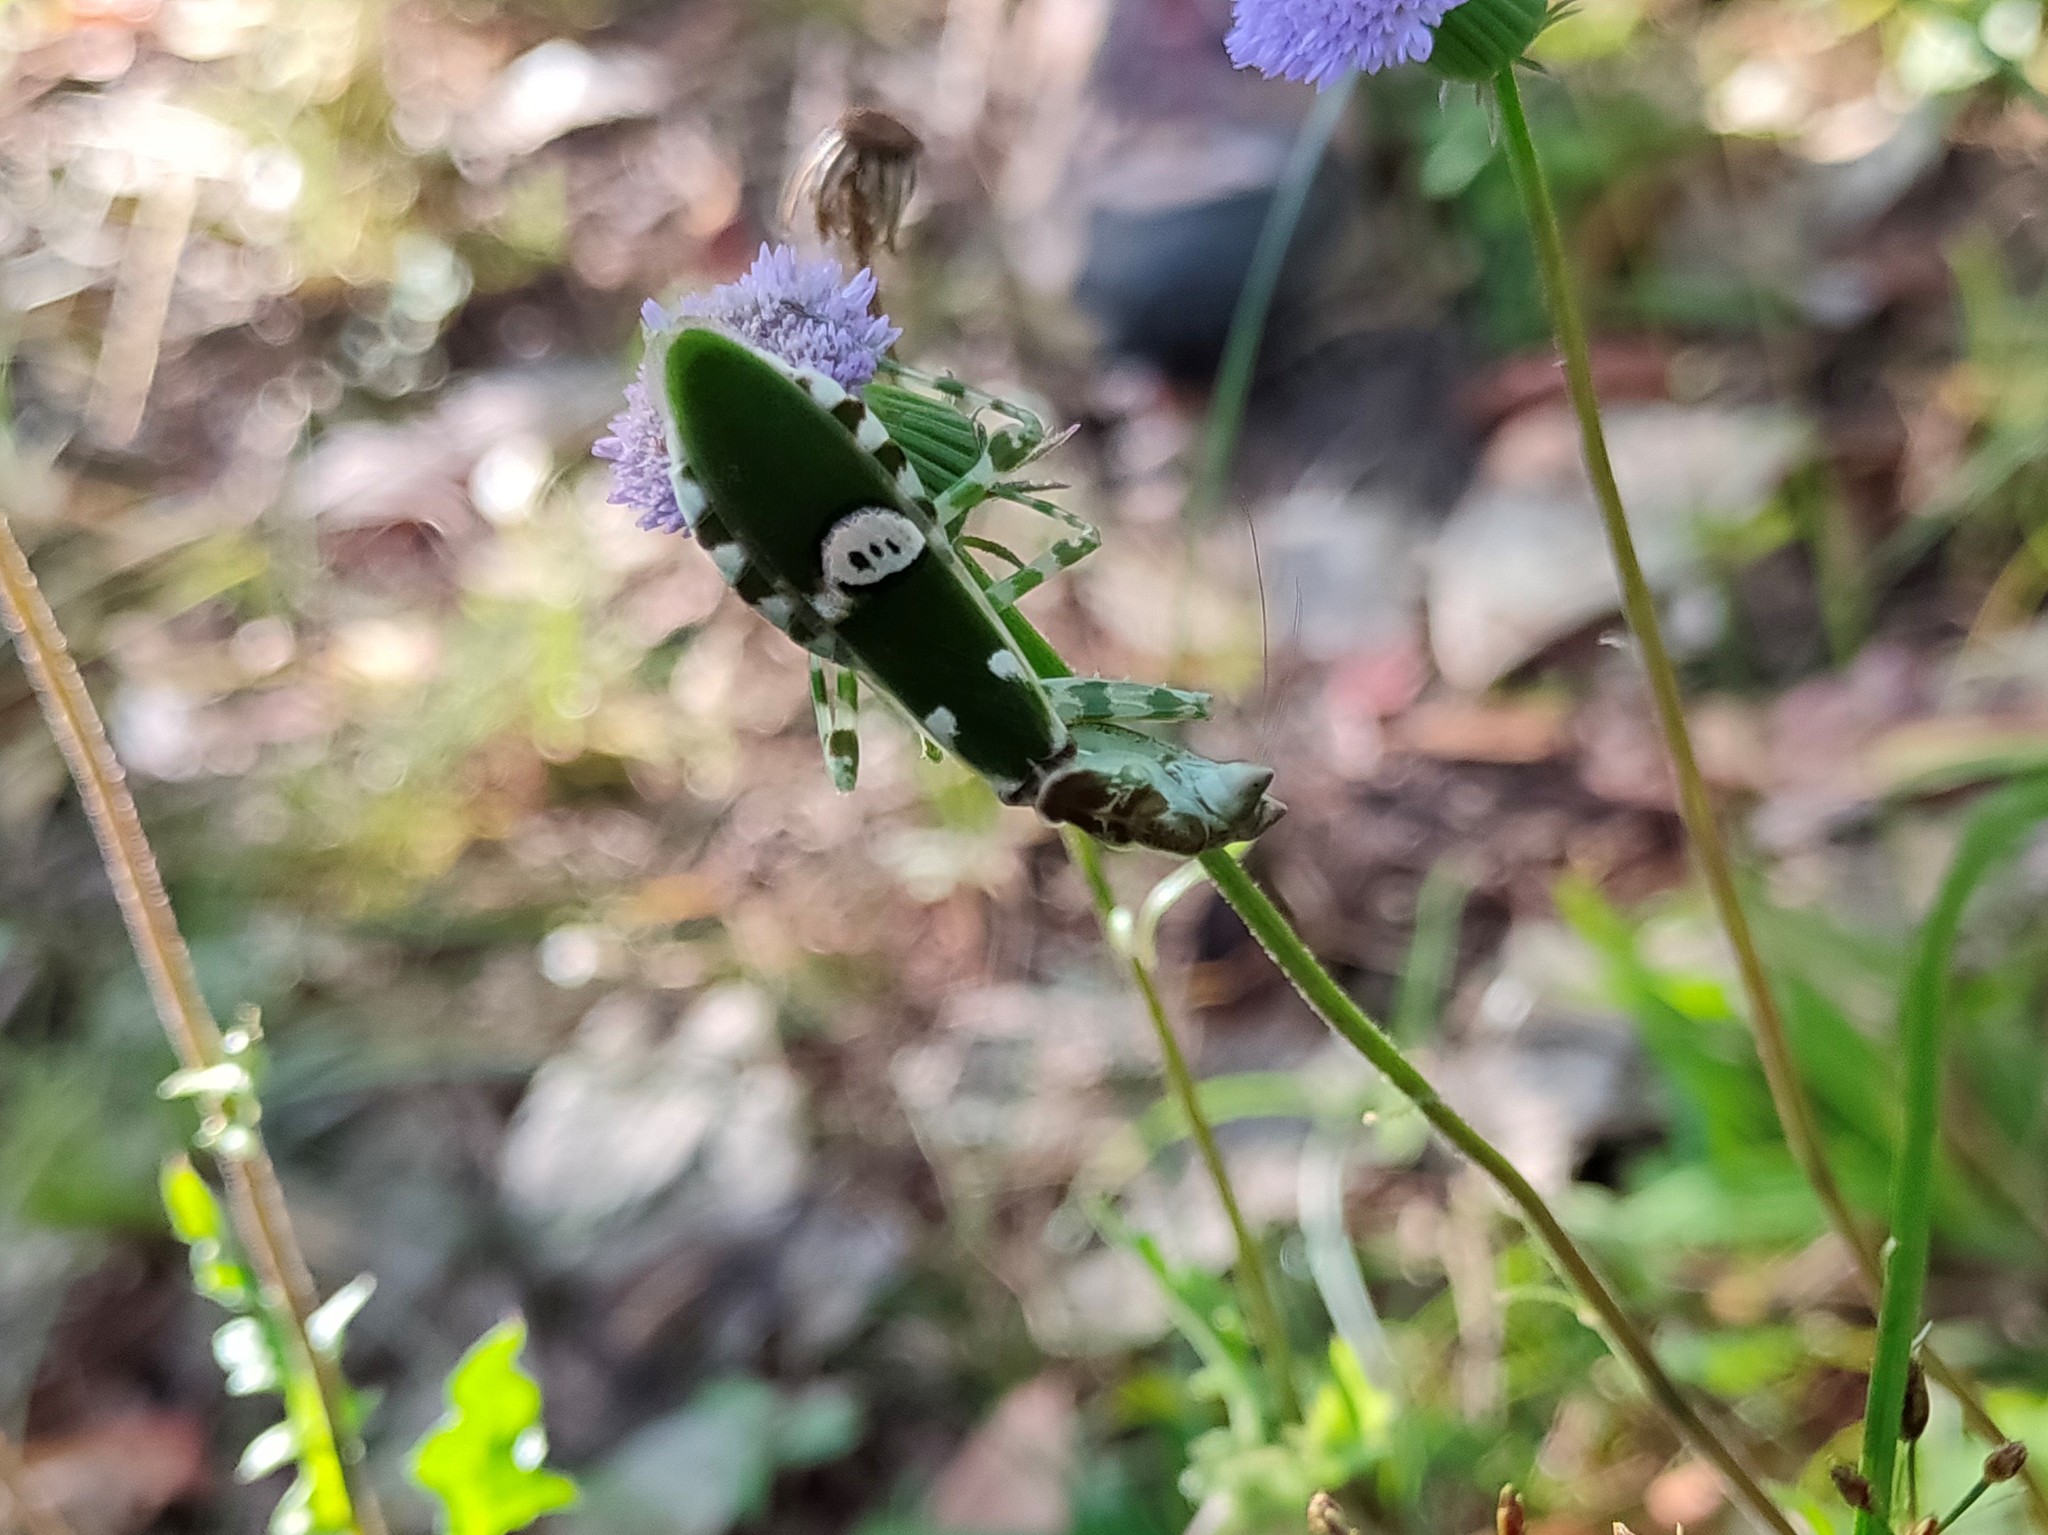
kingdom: Plantae
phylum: Tracheophyta
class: Magnoliopsida
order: Asterales
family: Asteraceae
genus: Crassocephalum
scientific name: Crassocephalum rubens
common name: Yoruban bologi
